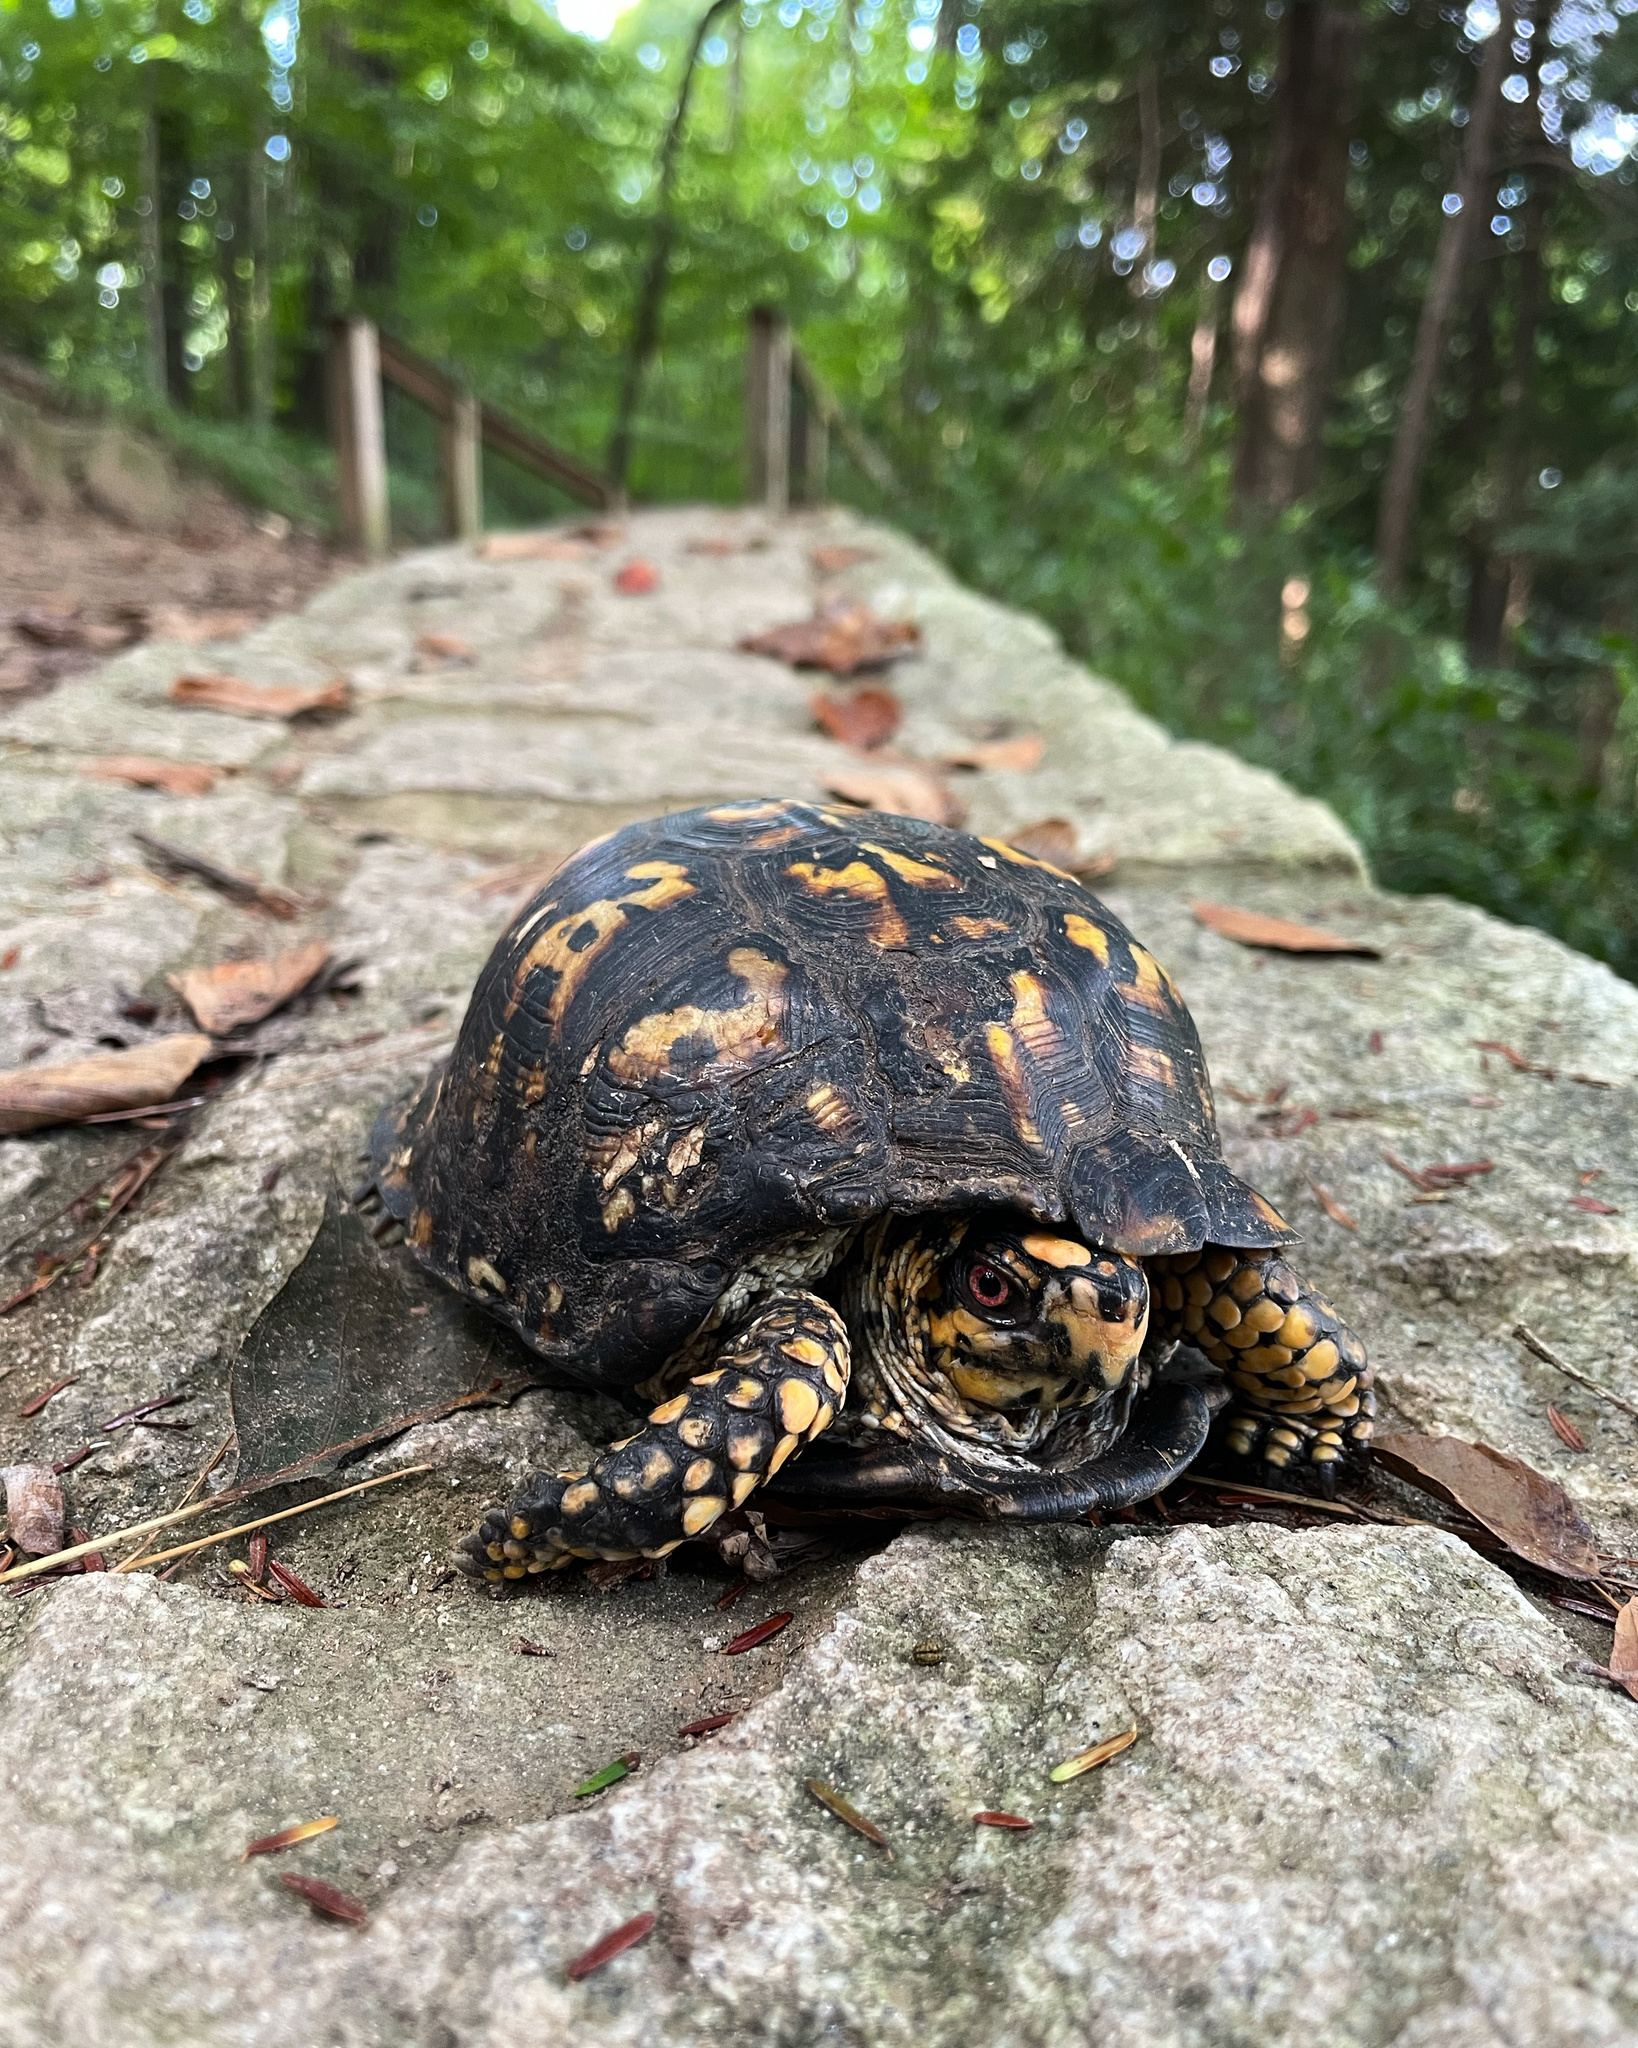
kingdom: Animalia
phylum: Chordata
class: Testudines
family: Emydidae
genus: Terrapene
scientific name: Terrapene carolina
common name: Common box turtle
